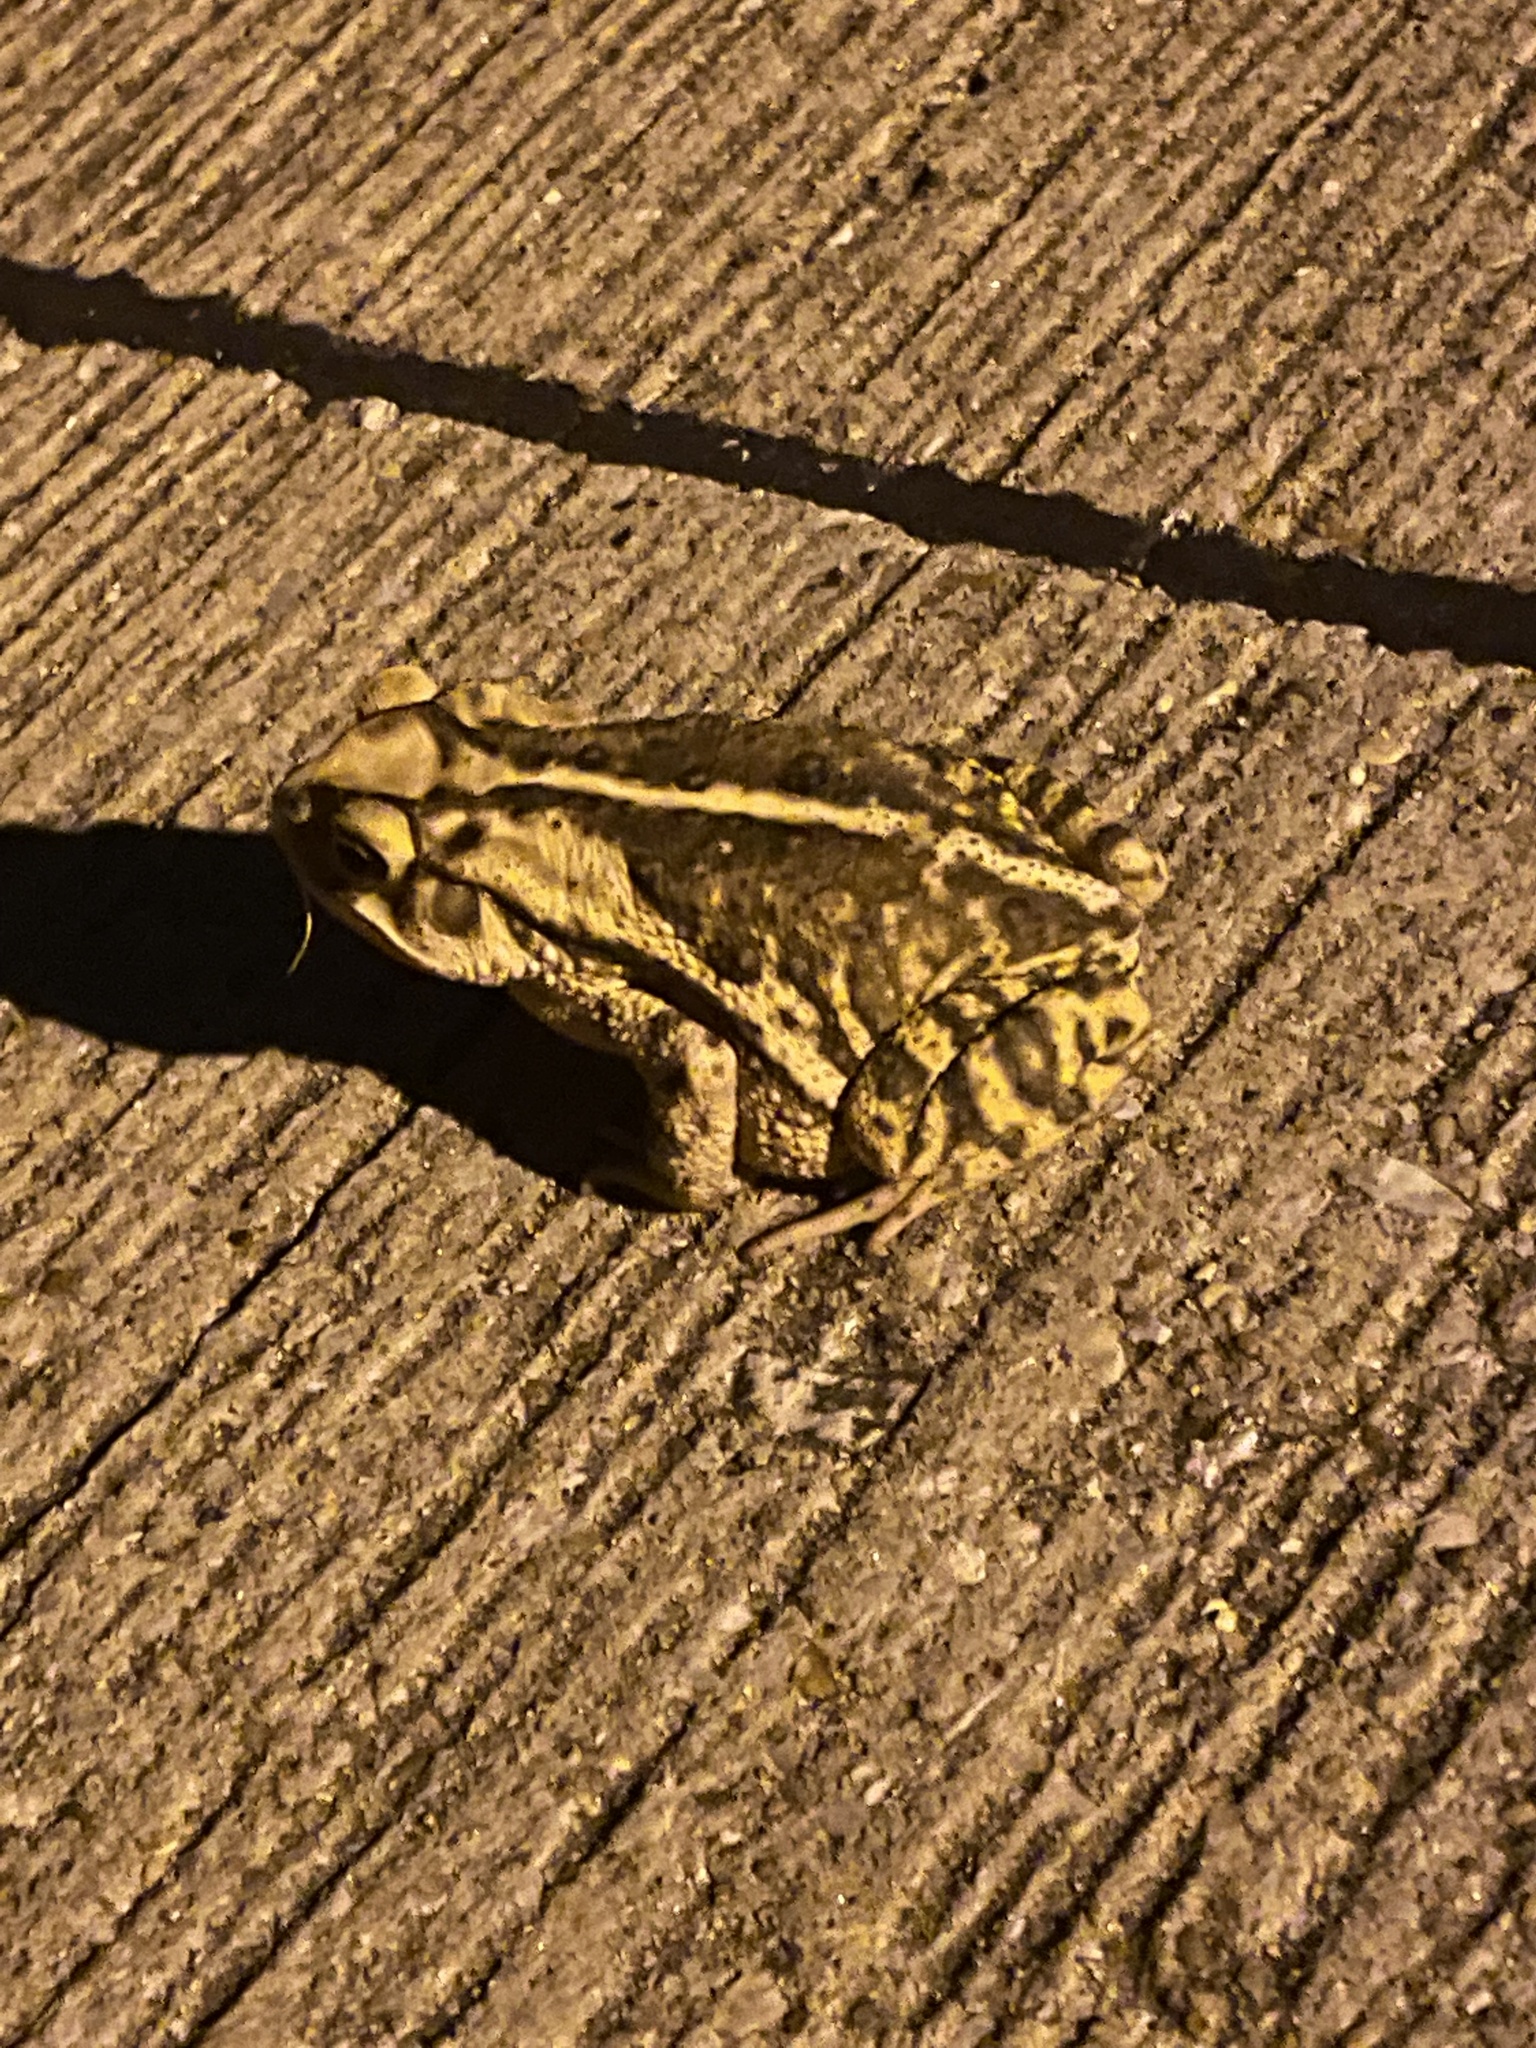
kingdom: Animalia
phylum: Chordata
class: Amphibia
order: Anura
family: Bufonidae
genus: Incilius
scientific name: Incilius nebulifer
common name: Gulf coast toad
